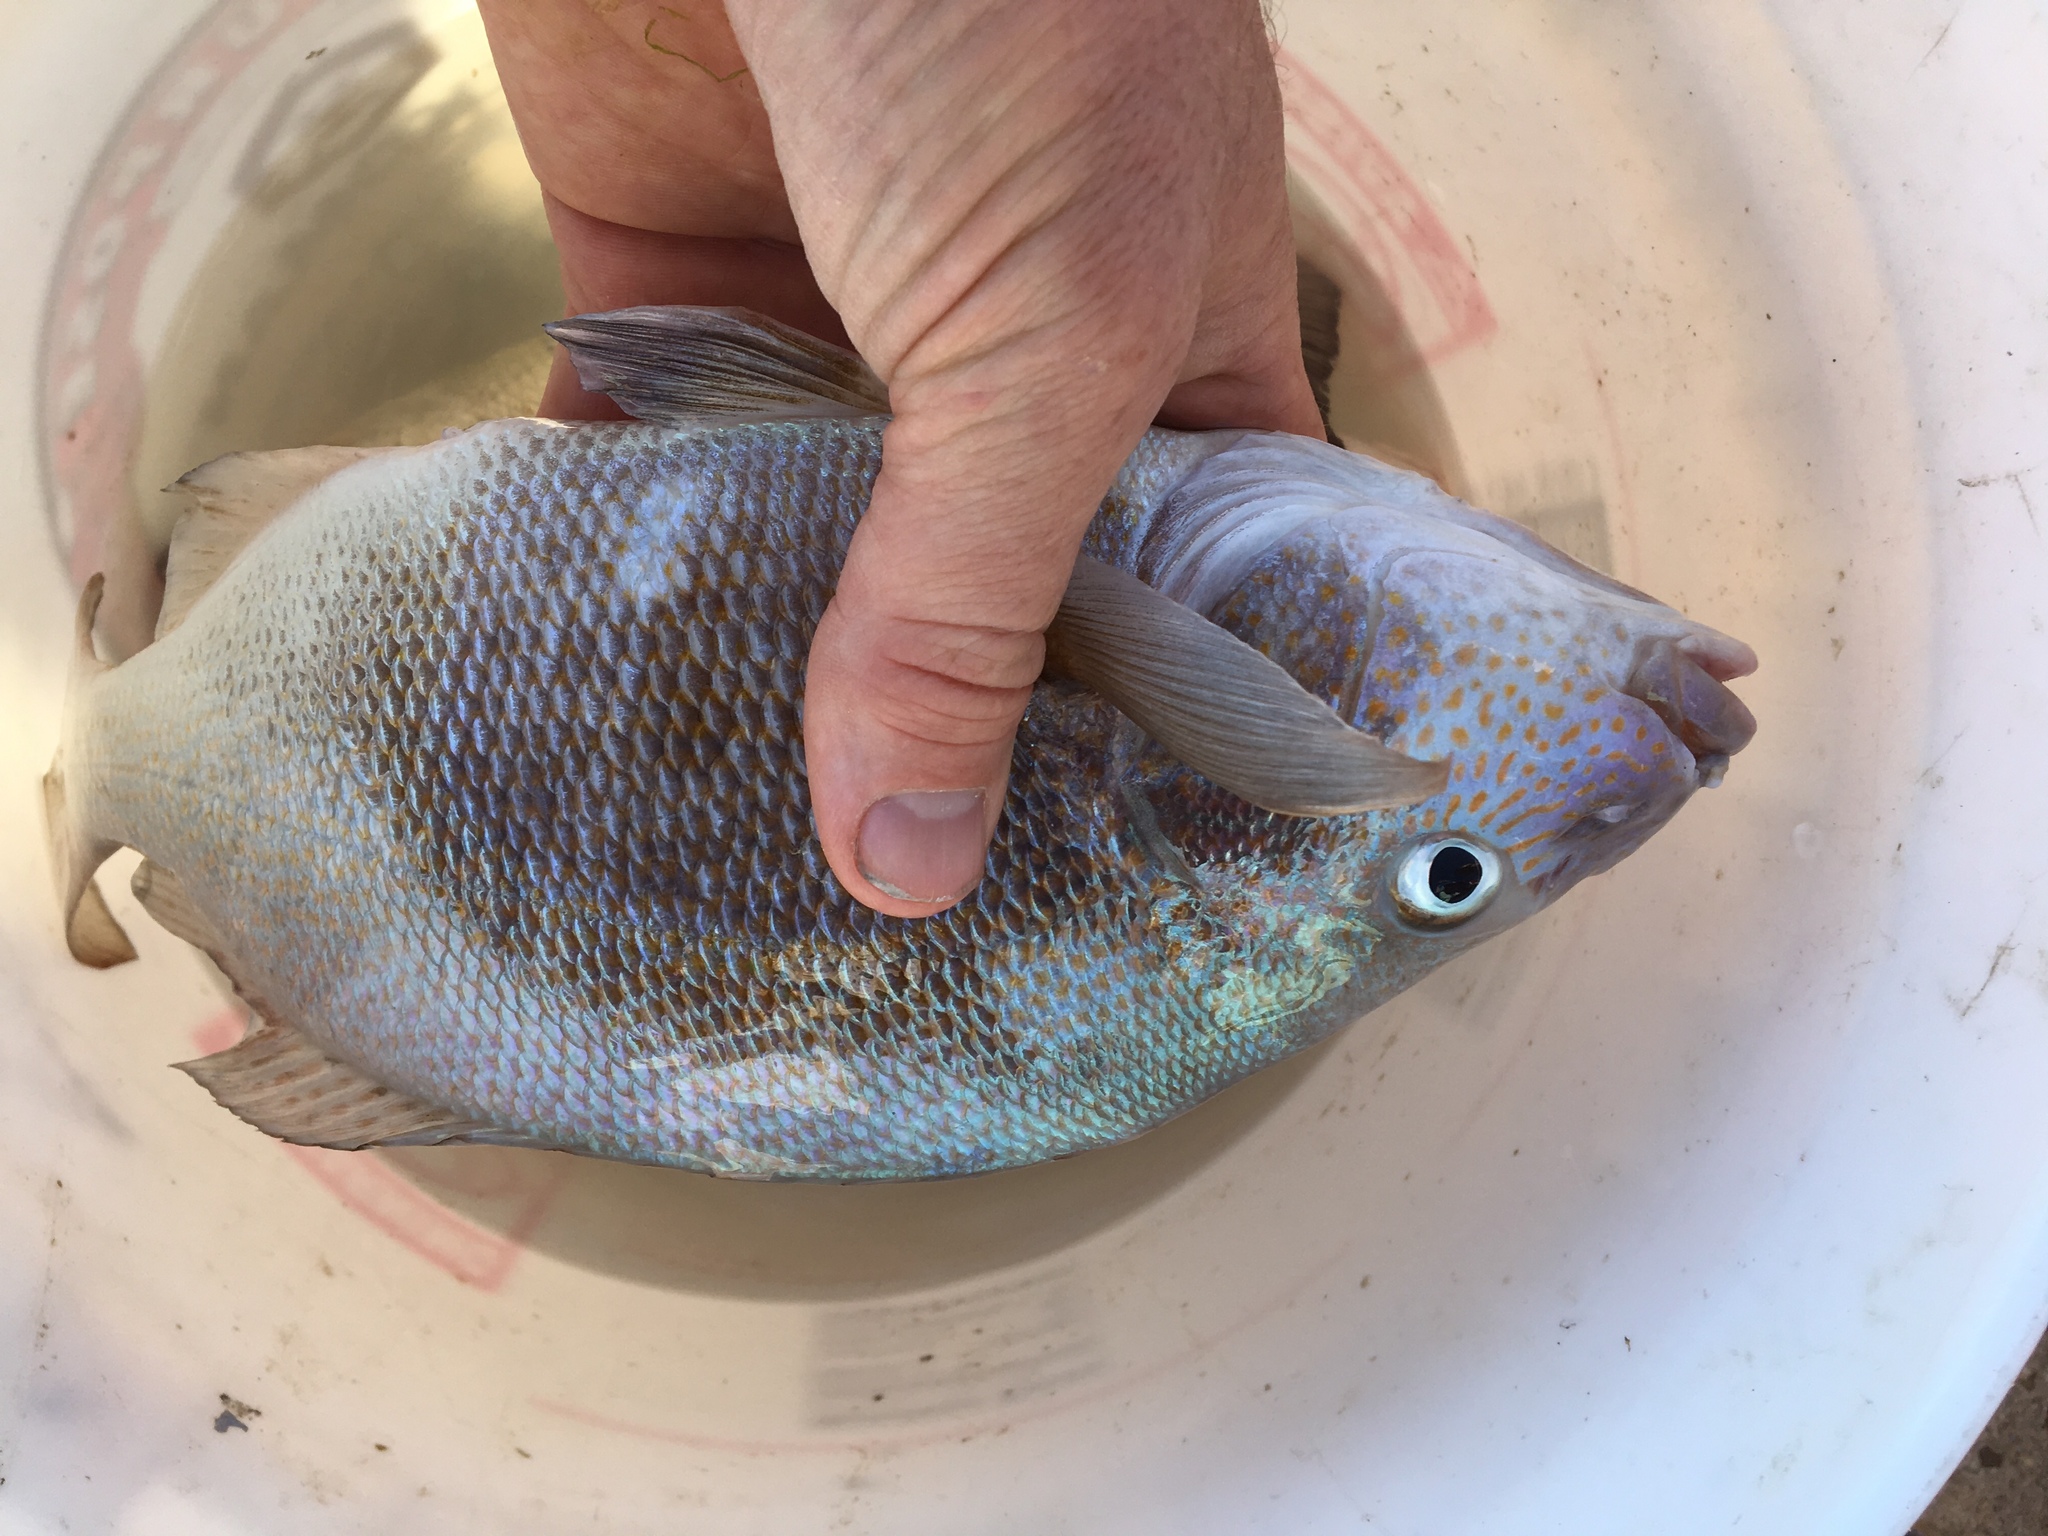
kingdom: Animalia
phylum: Chordata
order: Perciformes
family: Haemulidae
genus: Orthopristis
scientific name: Orthopristis chrysoptera
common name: Pigfish
